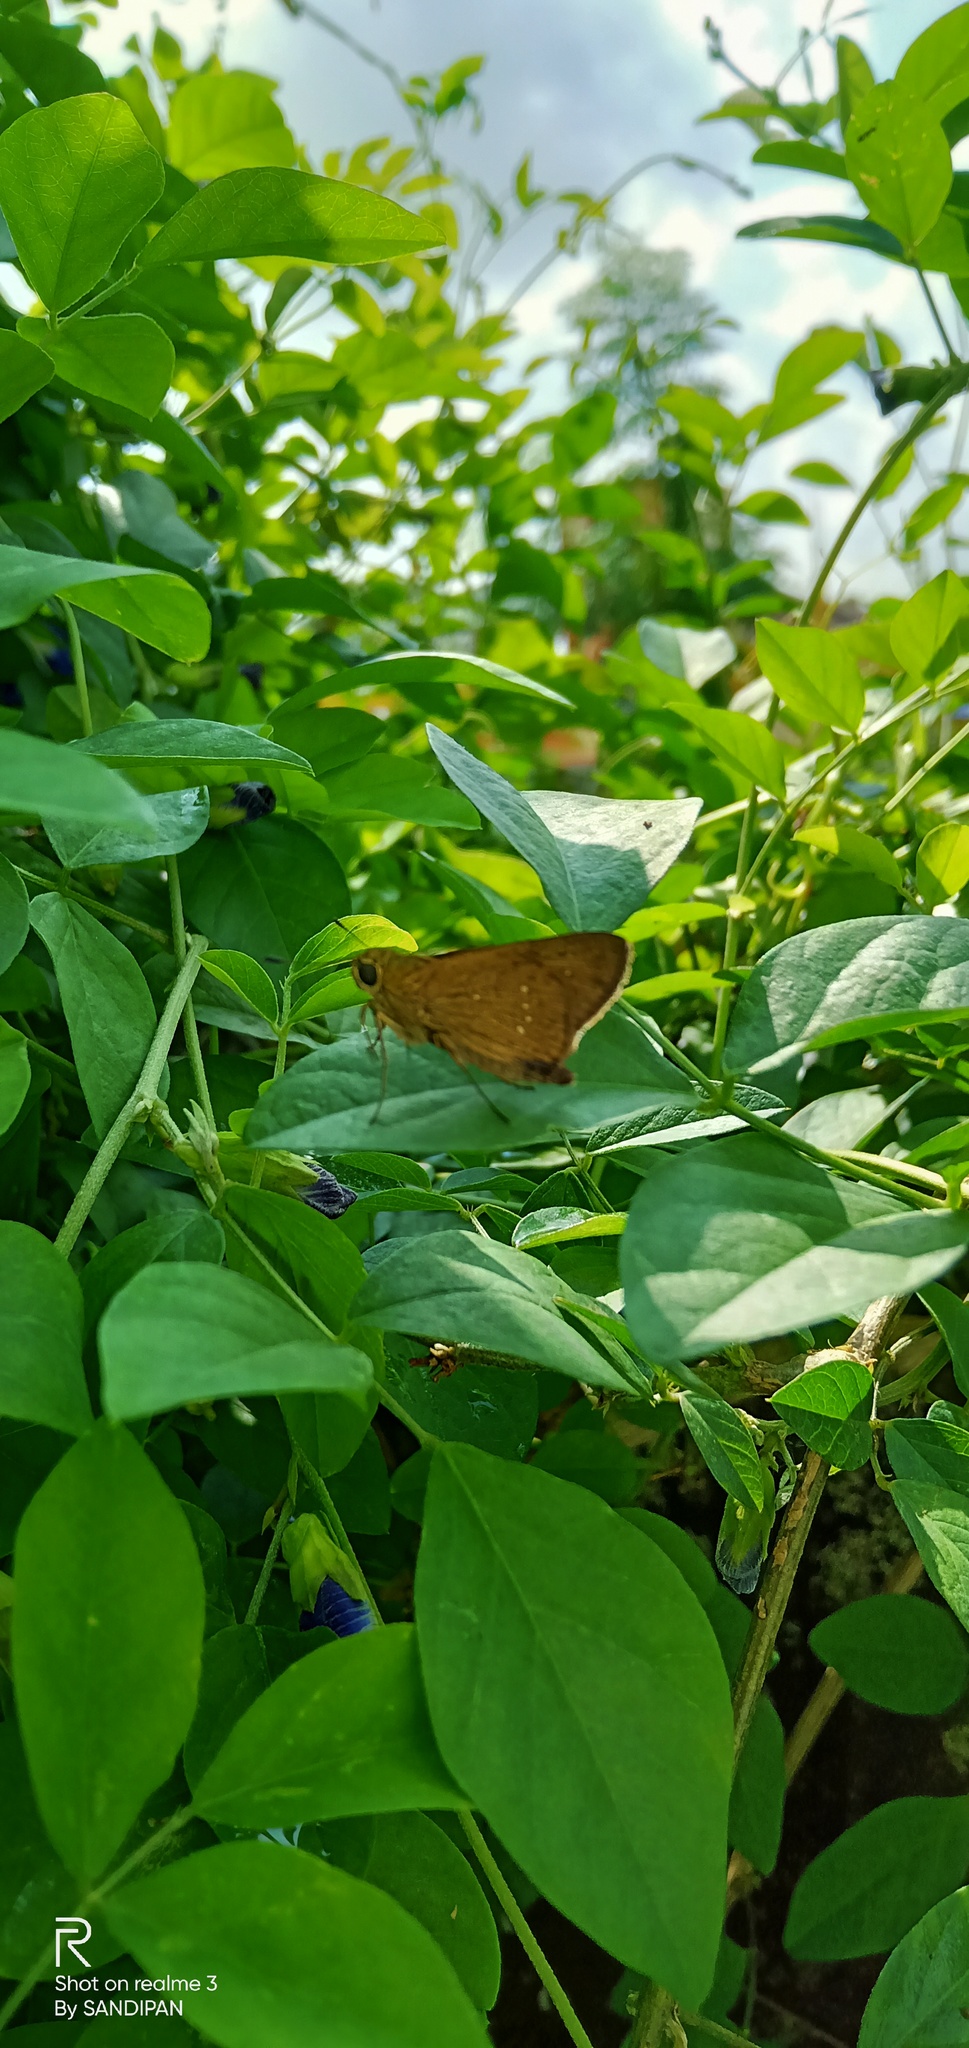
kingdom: Animalia
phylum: Arthropoda
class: Insecta
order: Lepidoptera
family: Hesperiidae
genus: Polytremis
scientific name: Polytremis lubricans
